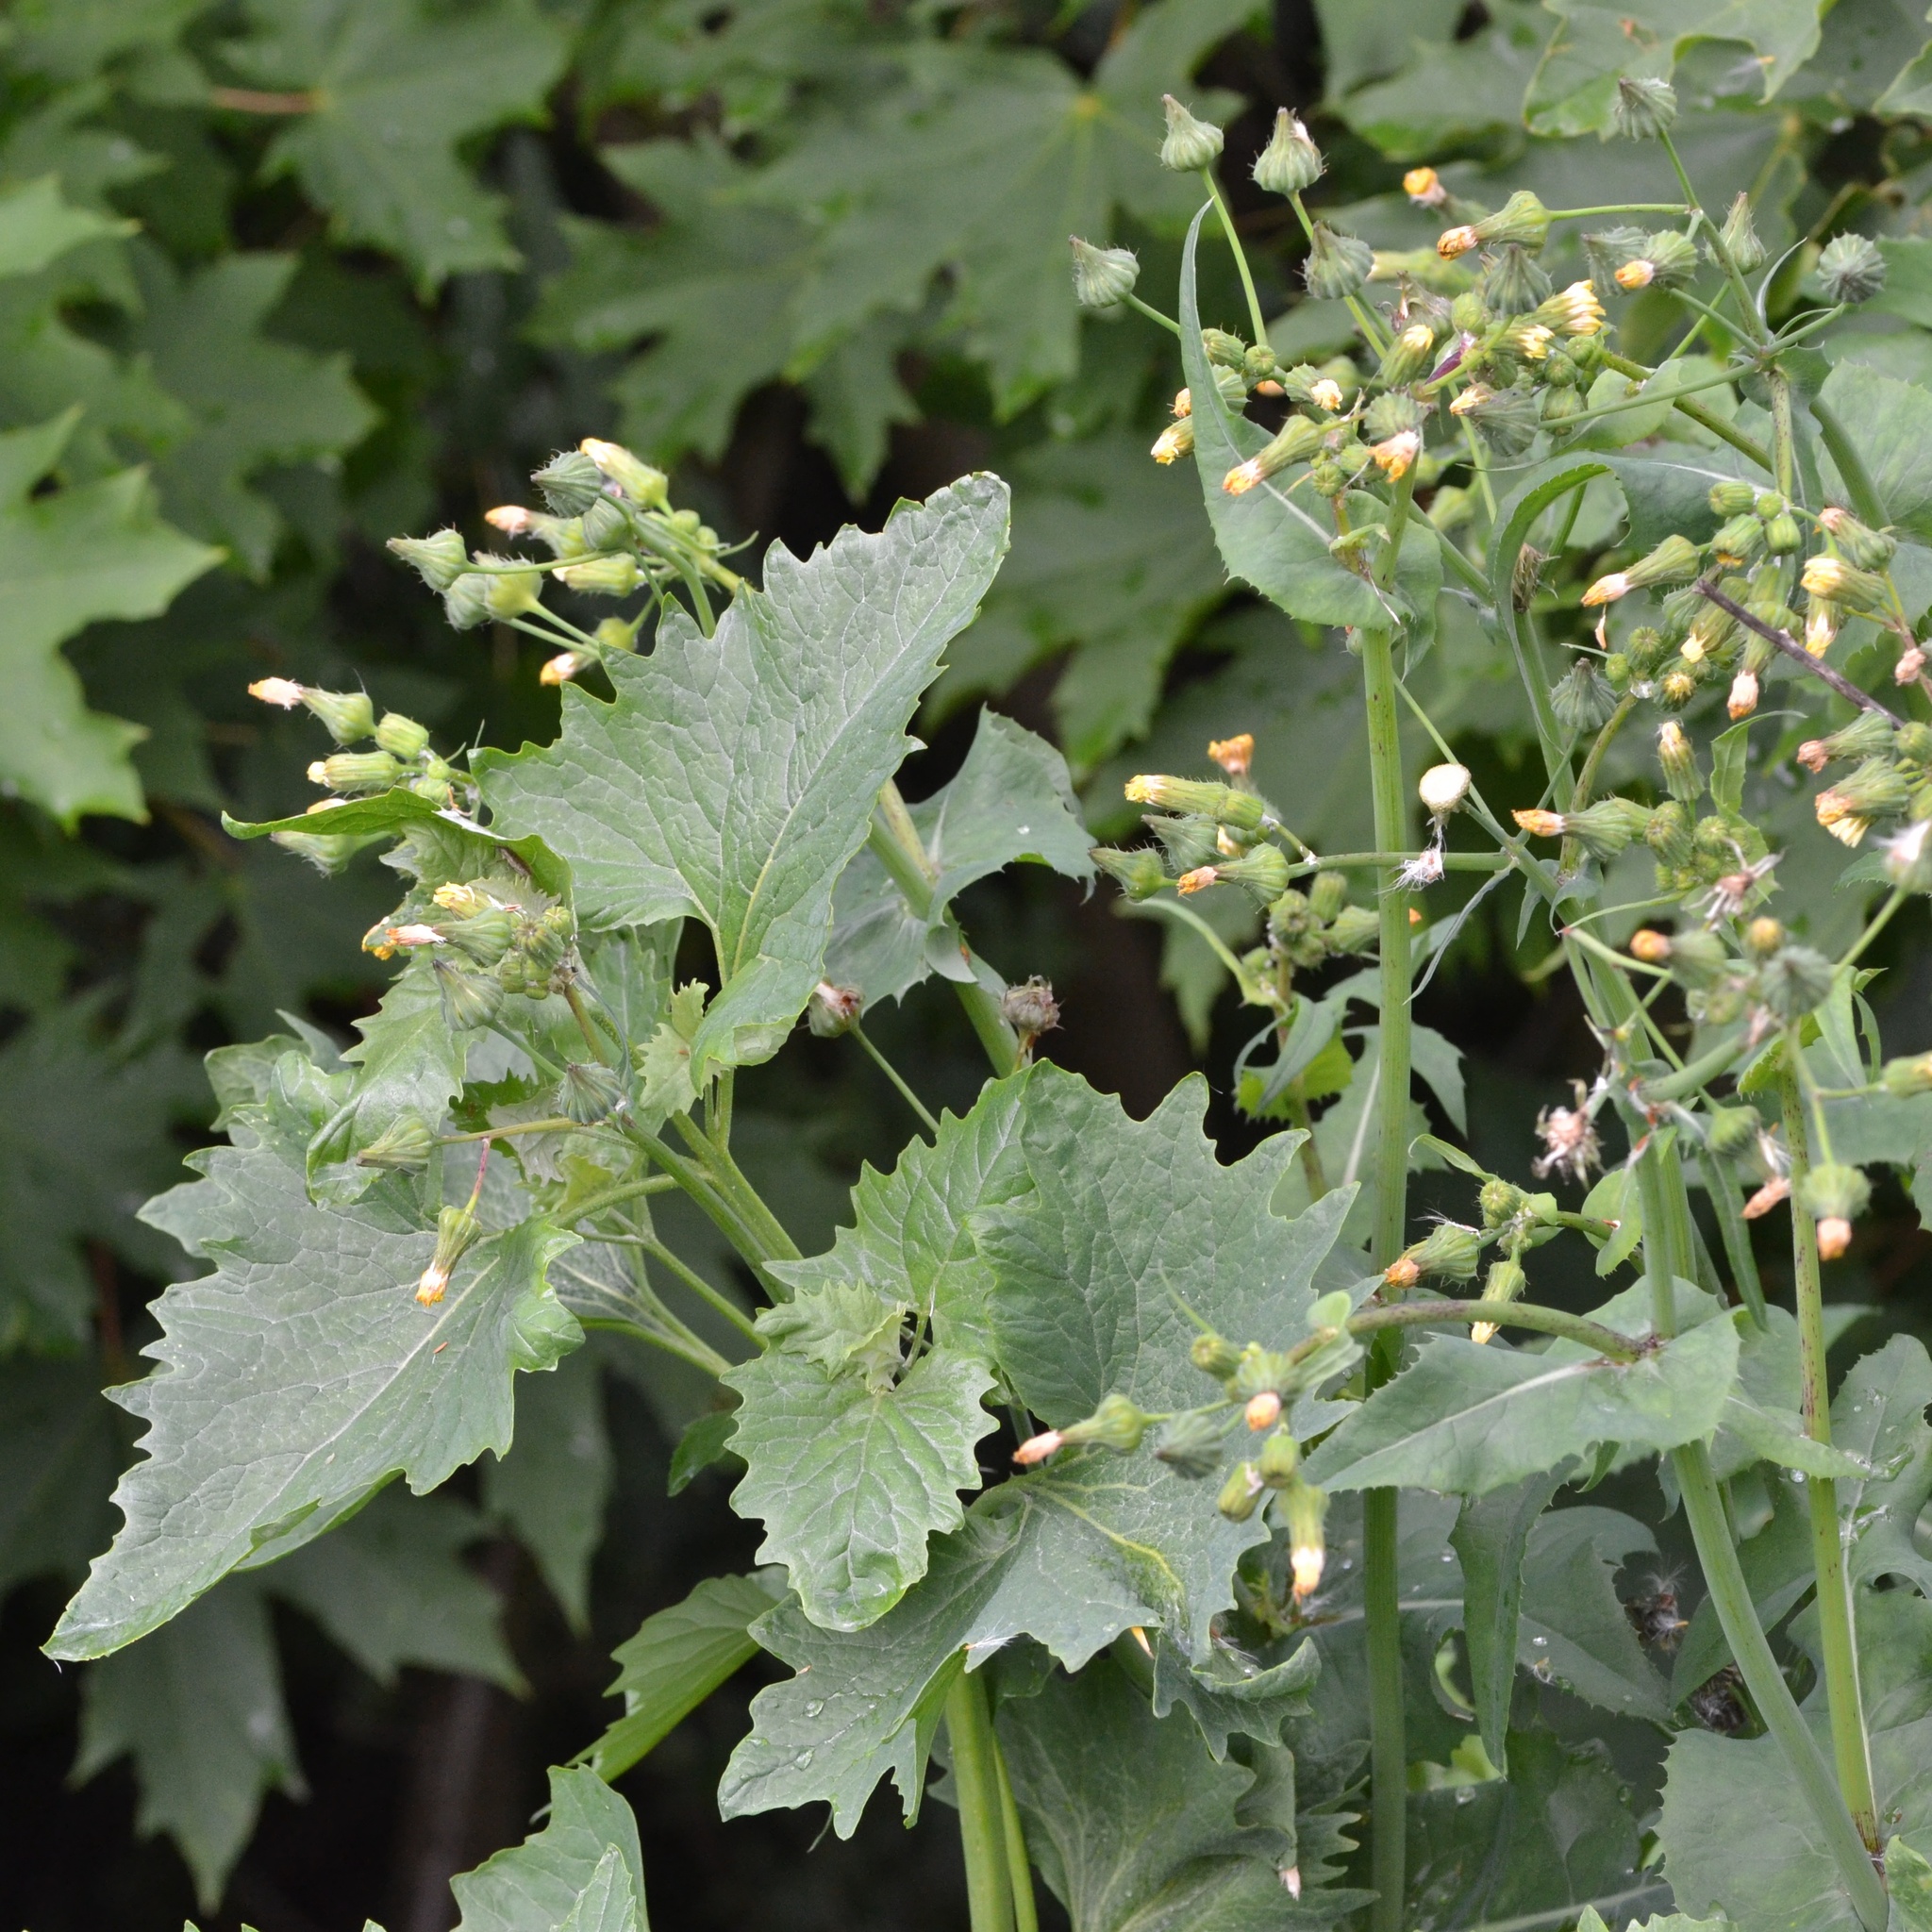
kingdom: Plantae
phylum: Tracheophyta
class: Magnoliopsida
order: Asterales
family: Asteraceae
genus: Sonchus
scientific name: Sonchus oleraceus
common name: Common sowthistle
